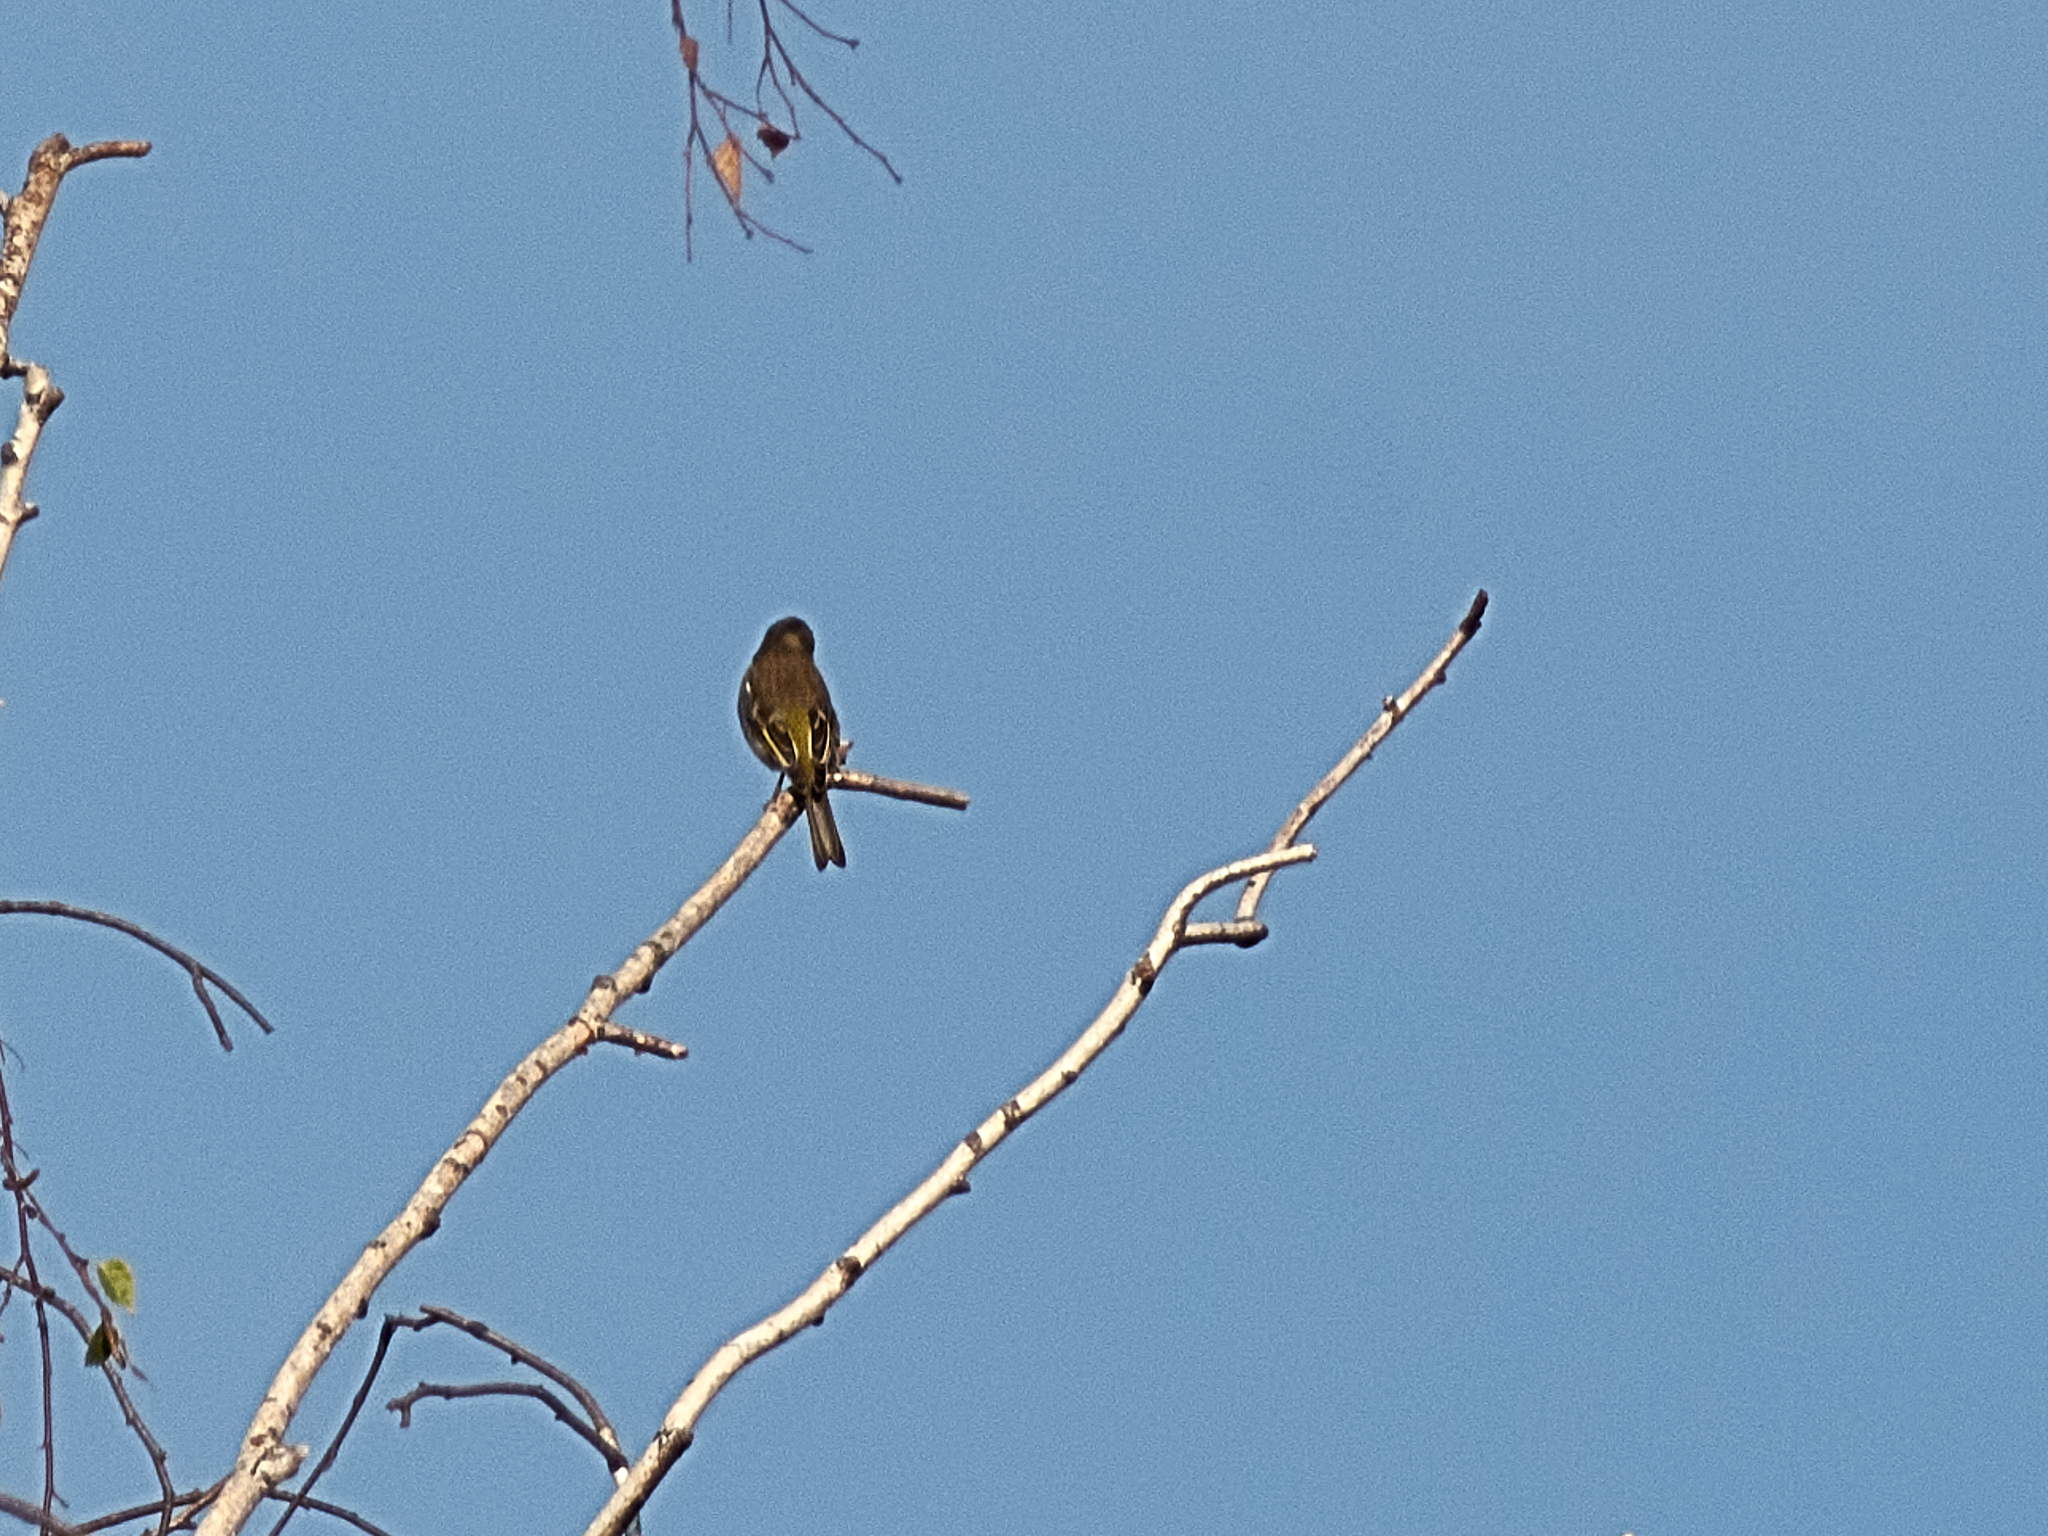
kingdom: Animalia
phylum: Chordata
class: Aves
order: Passeriformes
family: Fringillidae
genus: Fringilla
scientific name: Fringilla coelebs
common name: Common chaffinch
